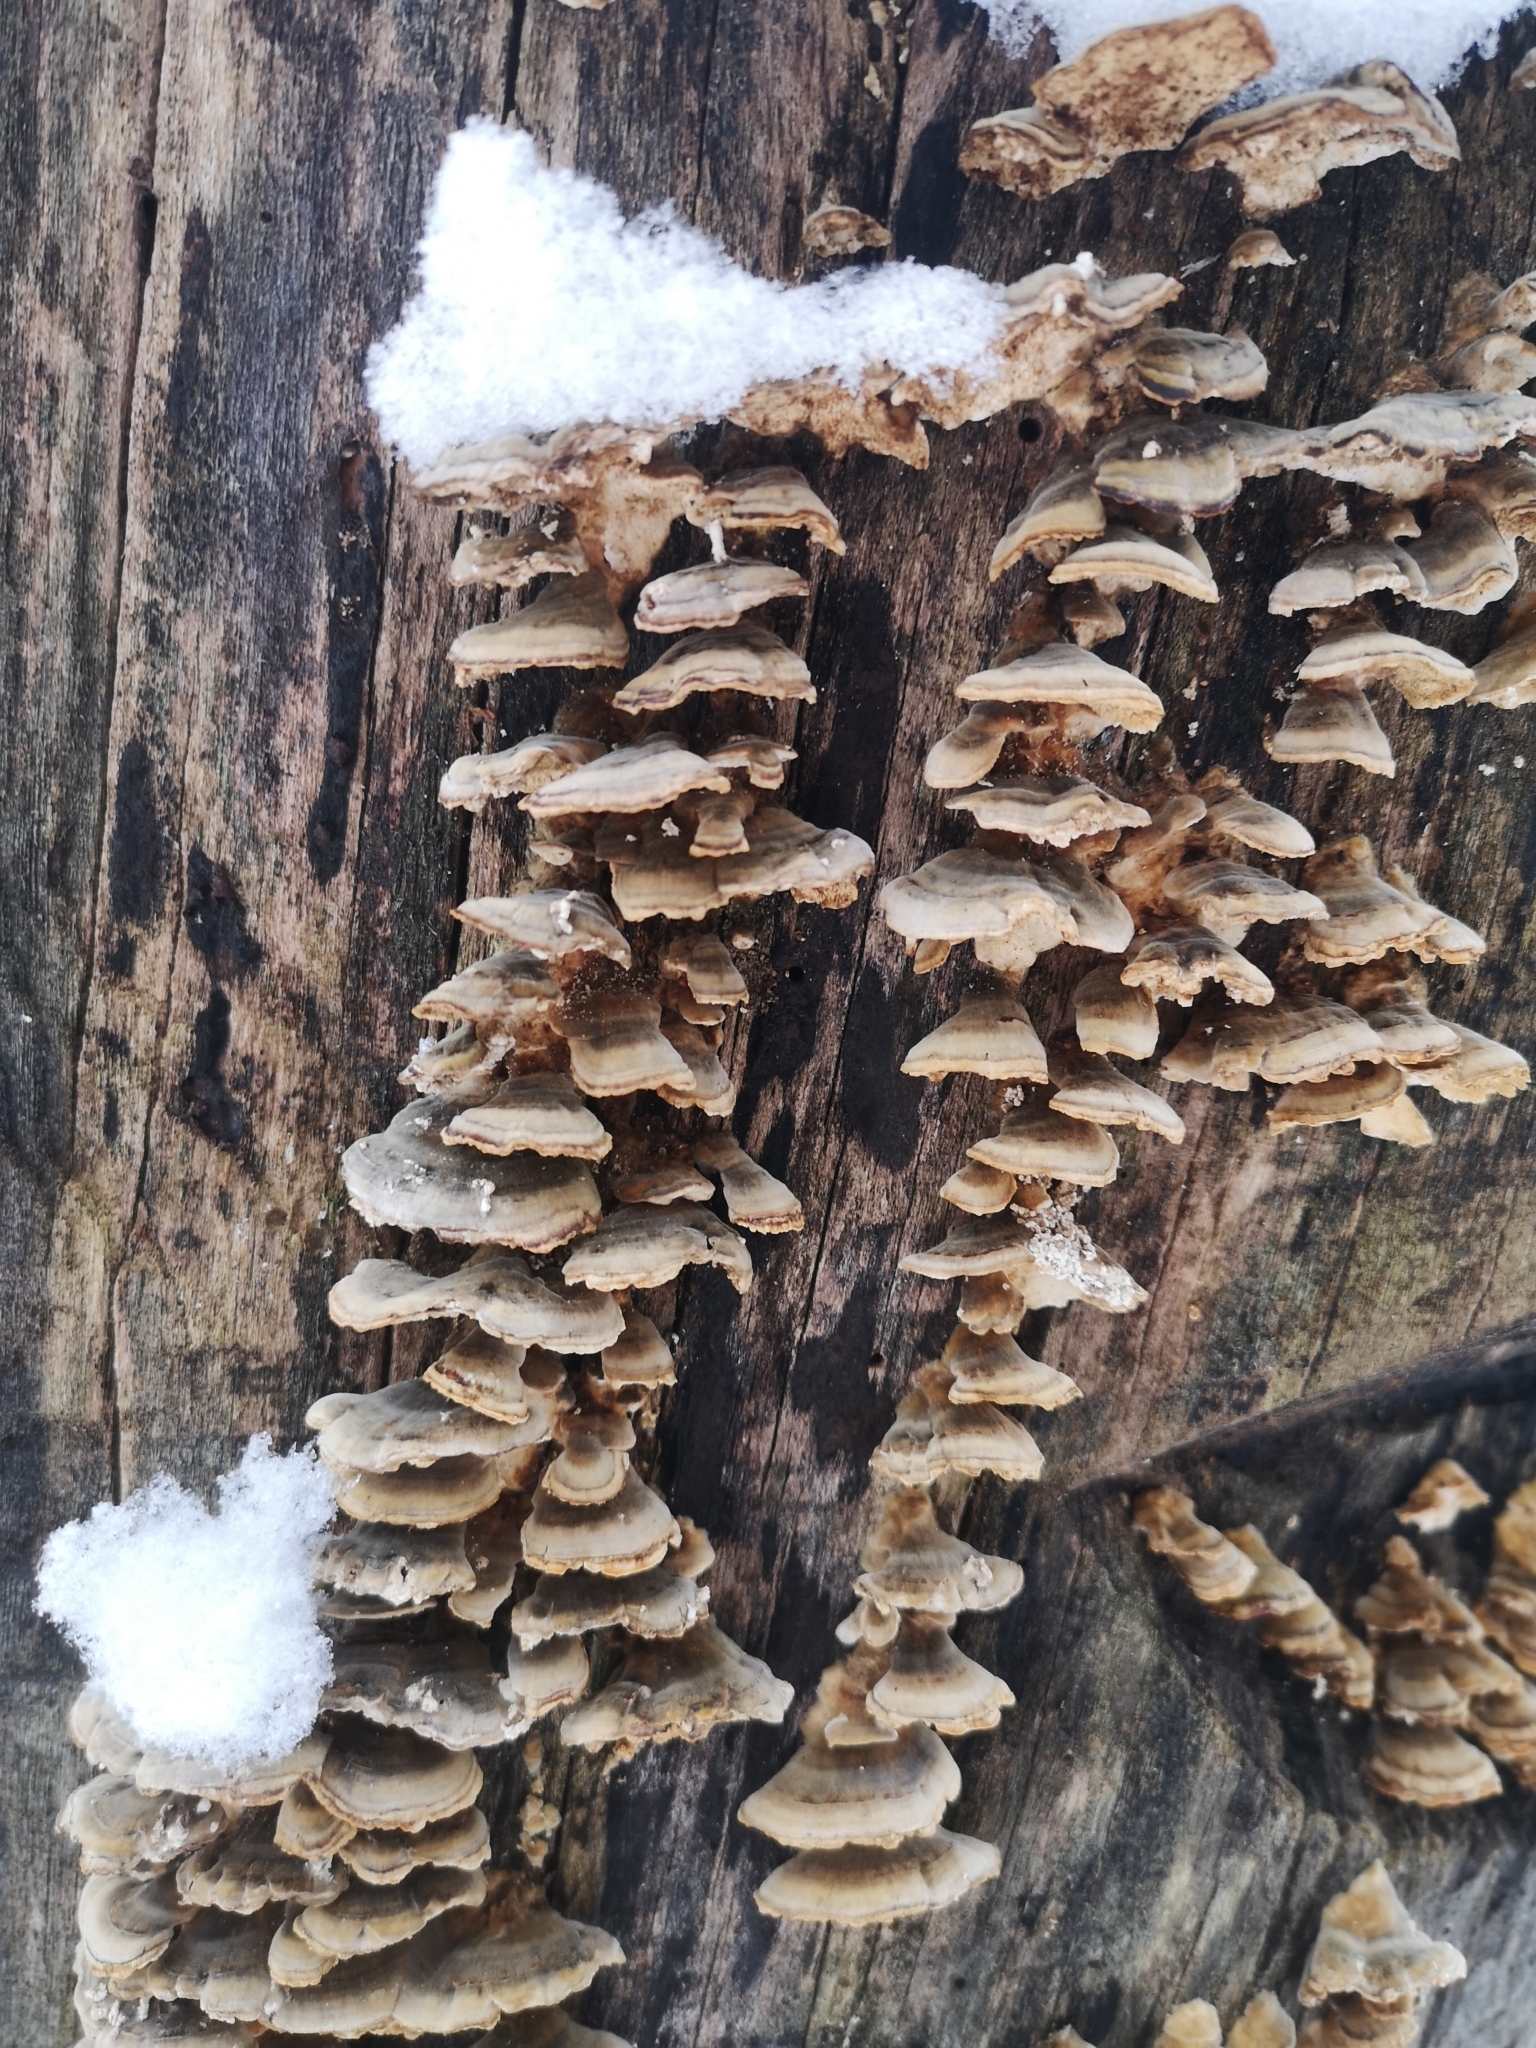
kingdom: Fungi
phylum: Basidiomycota
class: Agaricomycetes
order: Polyporales
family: Polyporaceae
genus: Trametes
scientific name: Trametes versicolor
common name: Turkeytail
